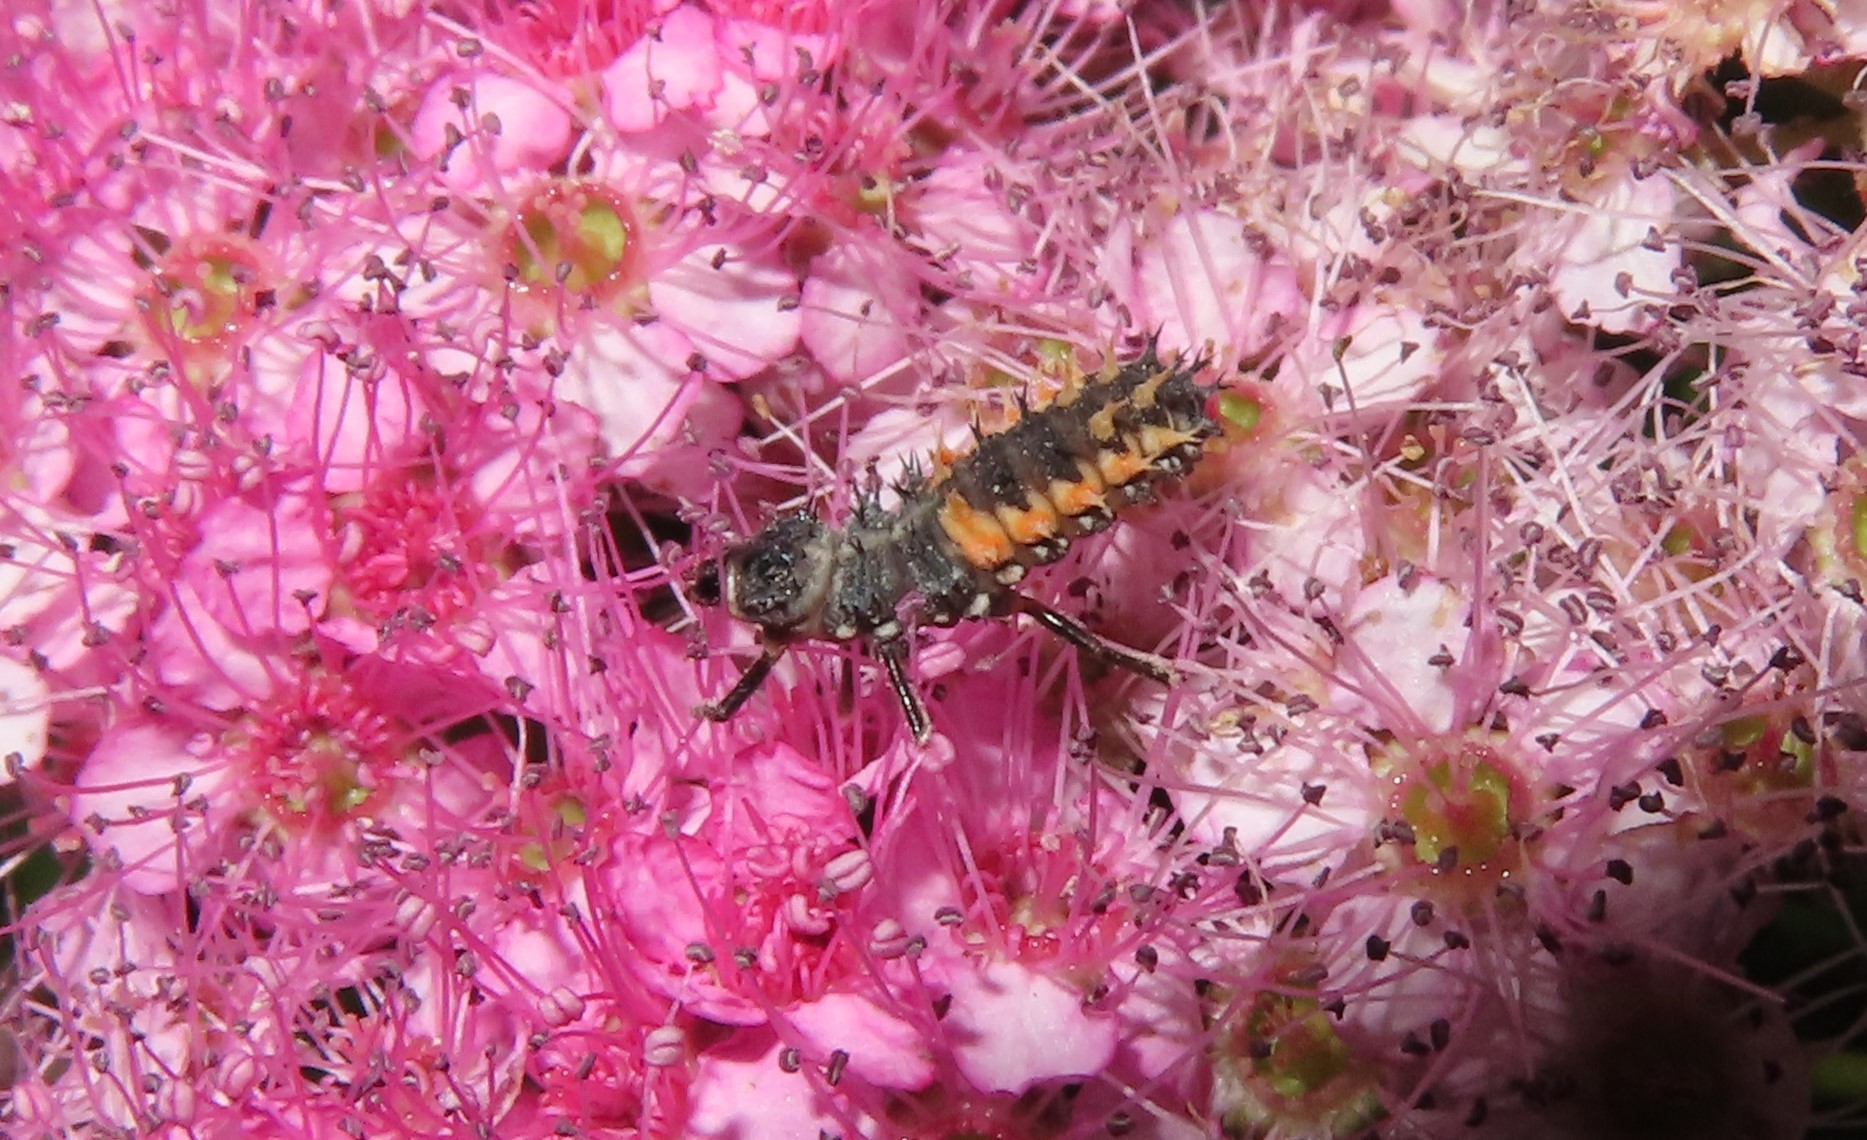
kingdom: Animalia
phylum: Arthropoda
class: Insecta
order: Coleoptera
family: Coccinellidae
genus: Harmonia
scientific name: Harmonia axyridis
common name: Harlequin ladybird
